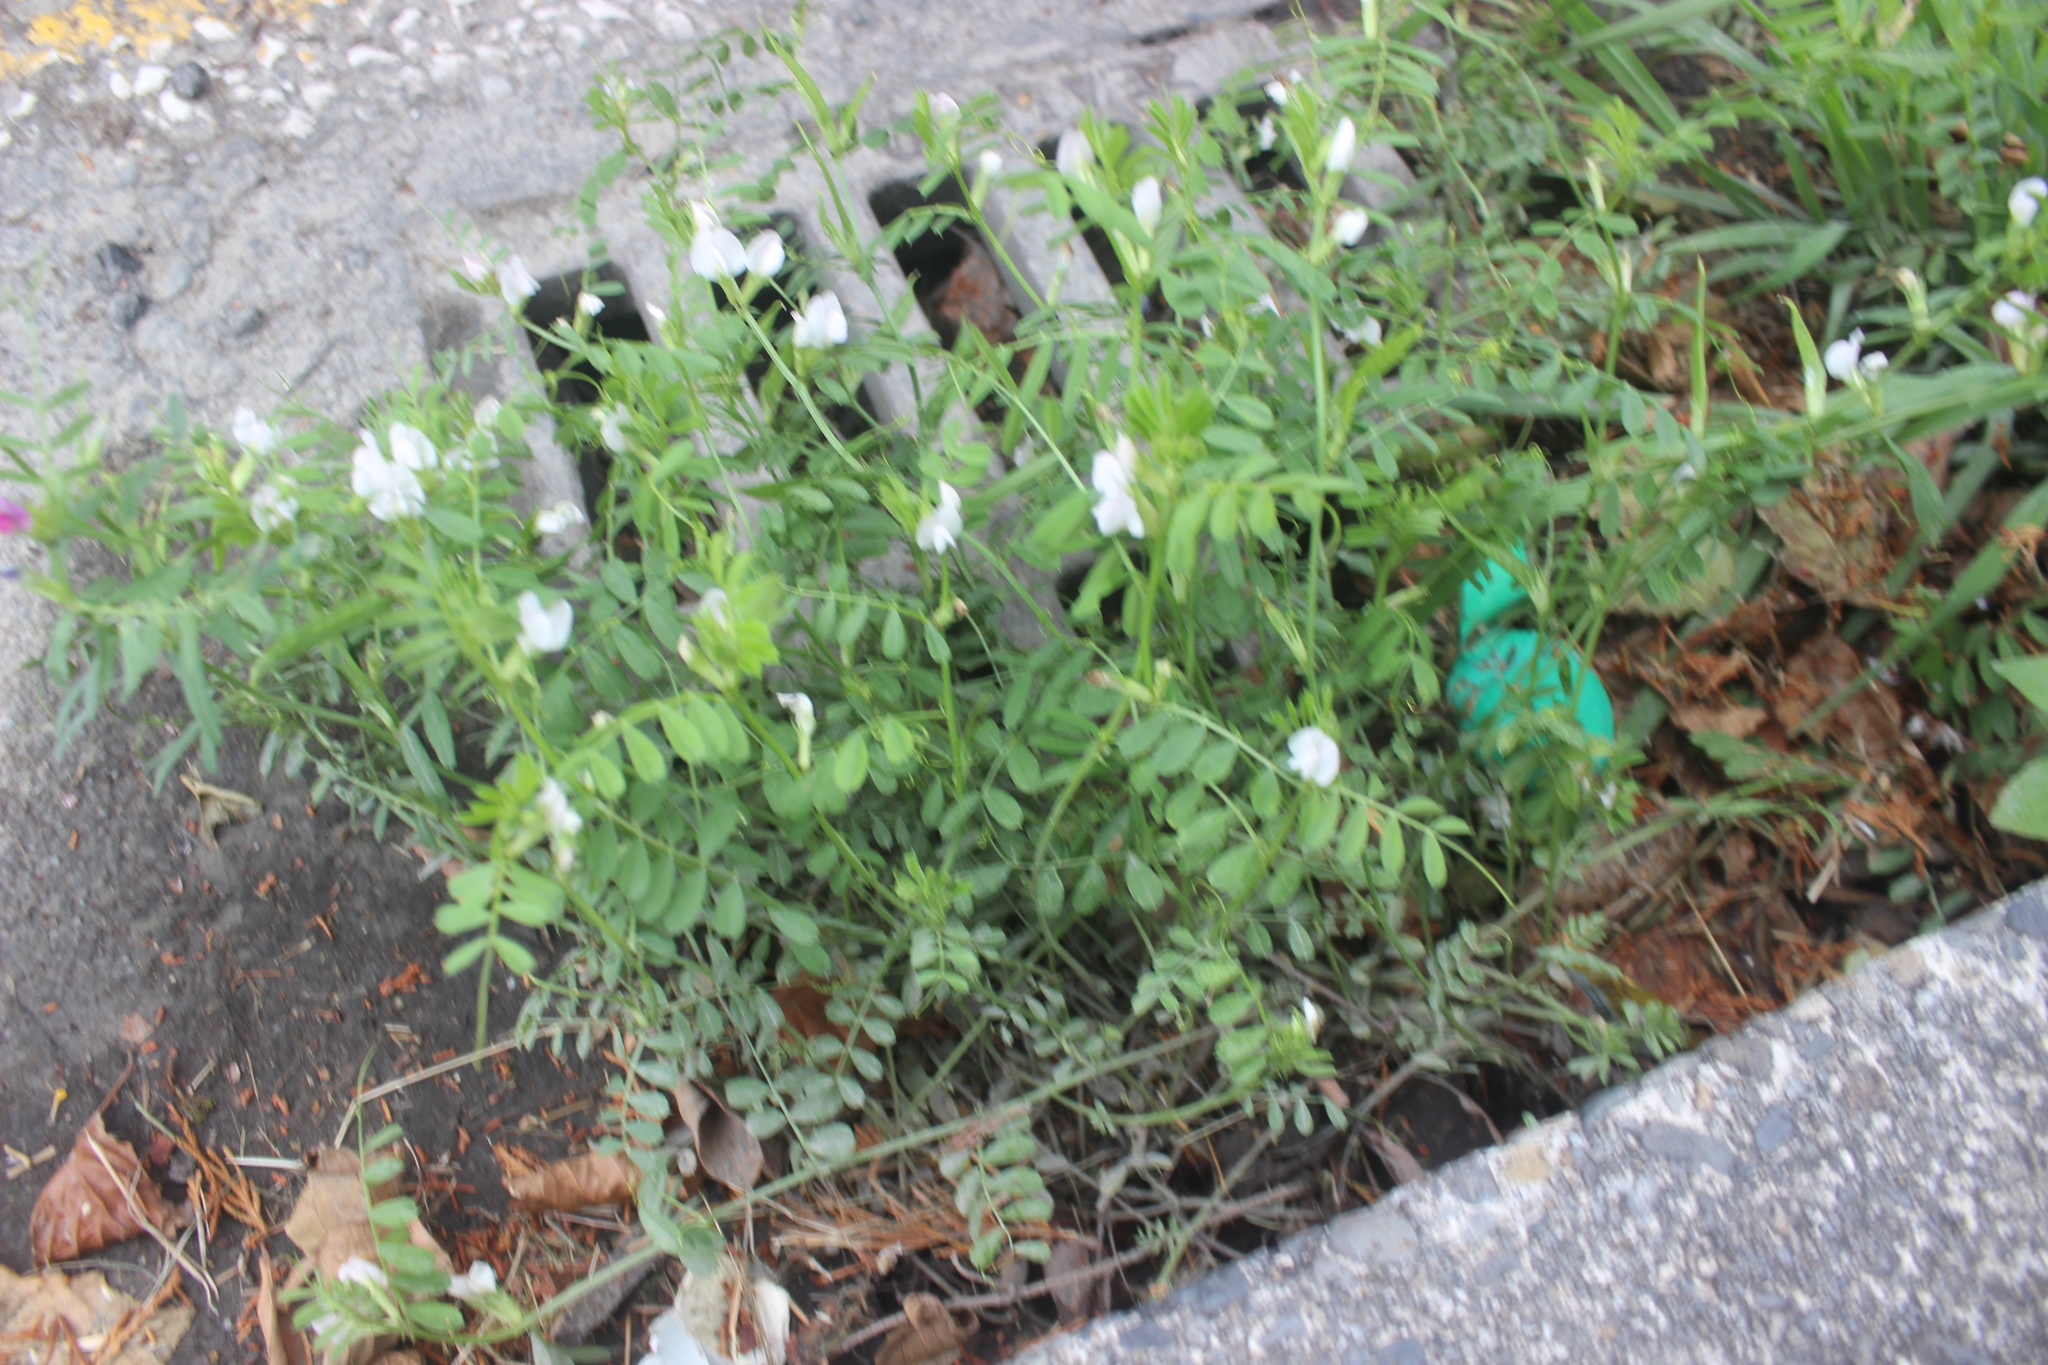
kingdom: Plantae
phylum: Tracheophyta
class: Magnoliopsida
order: Fabales
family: Fabaceae
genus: Vicia
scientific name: Vicia sativa
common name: Garden vetch
